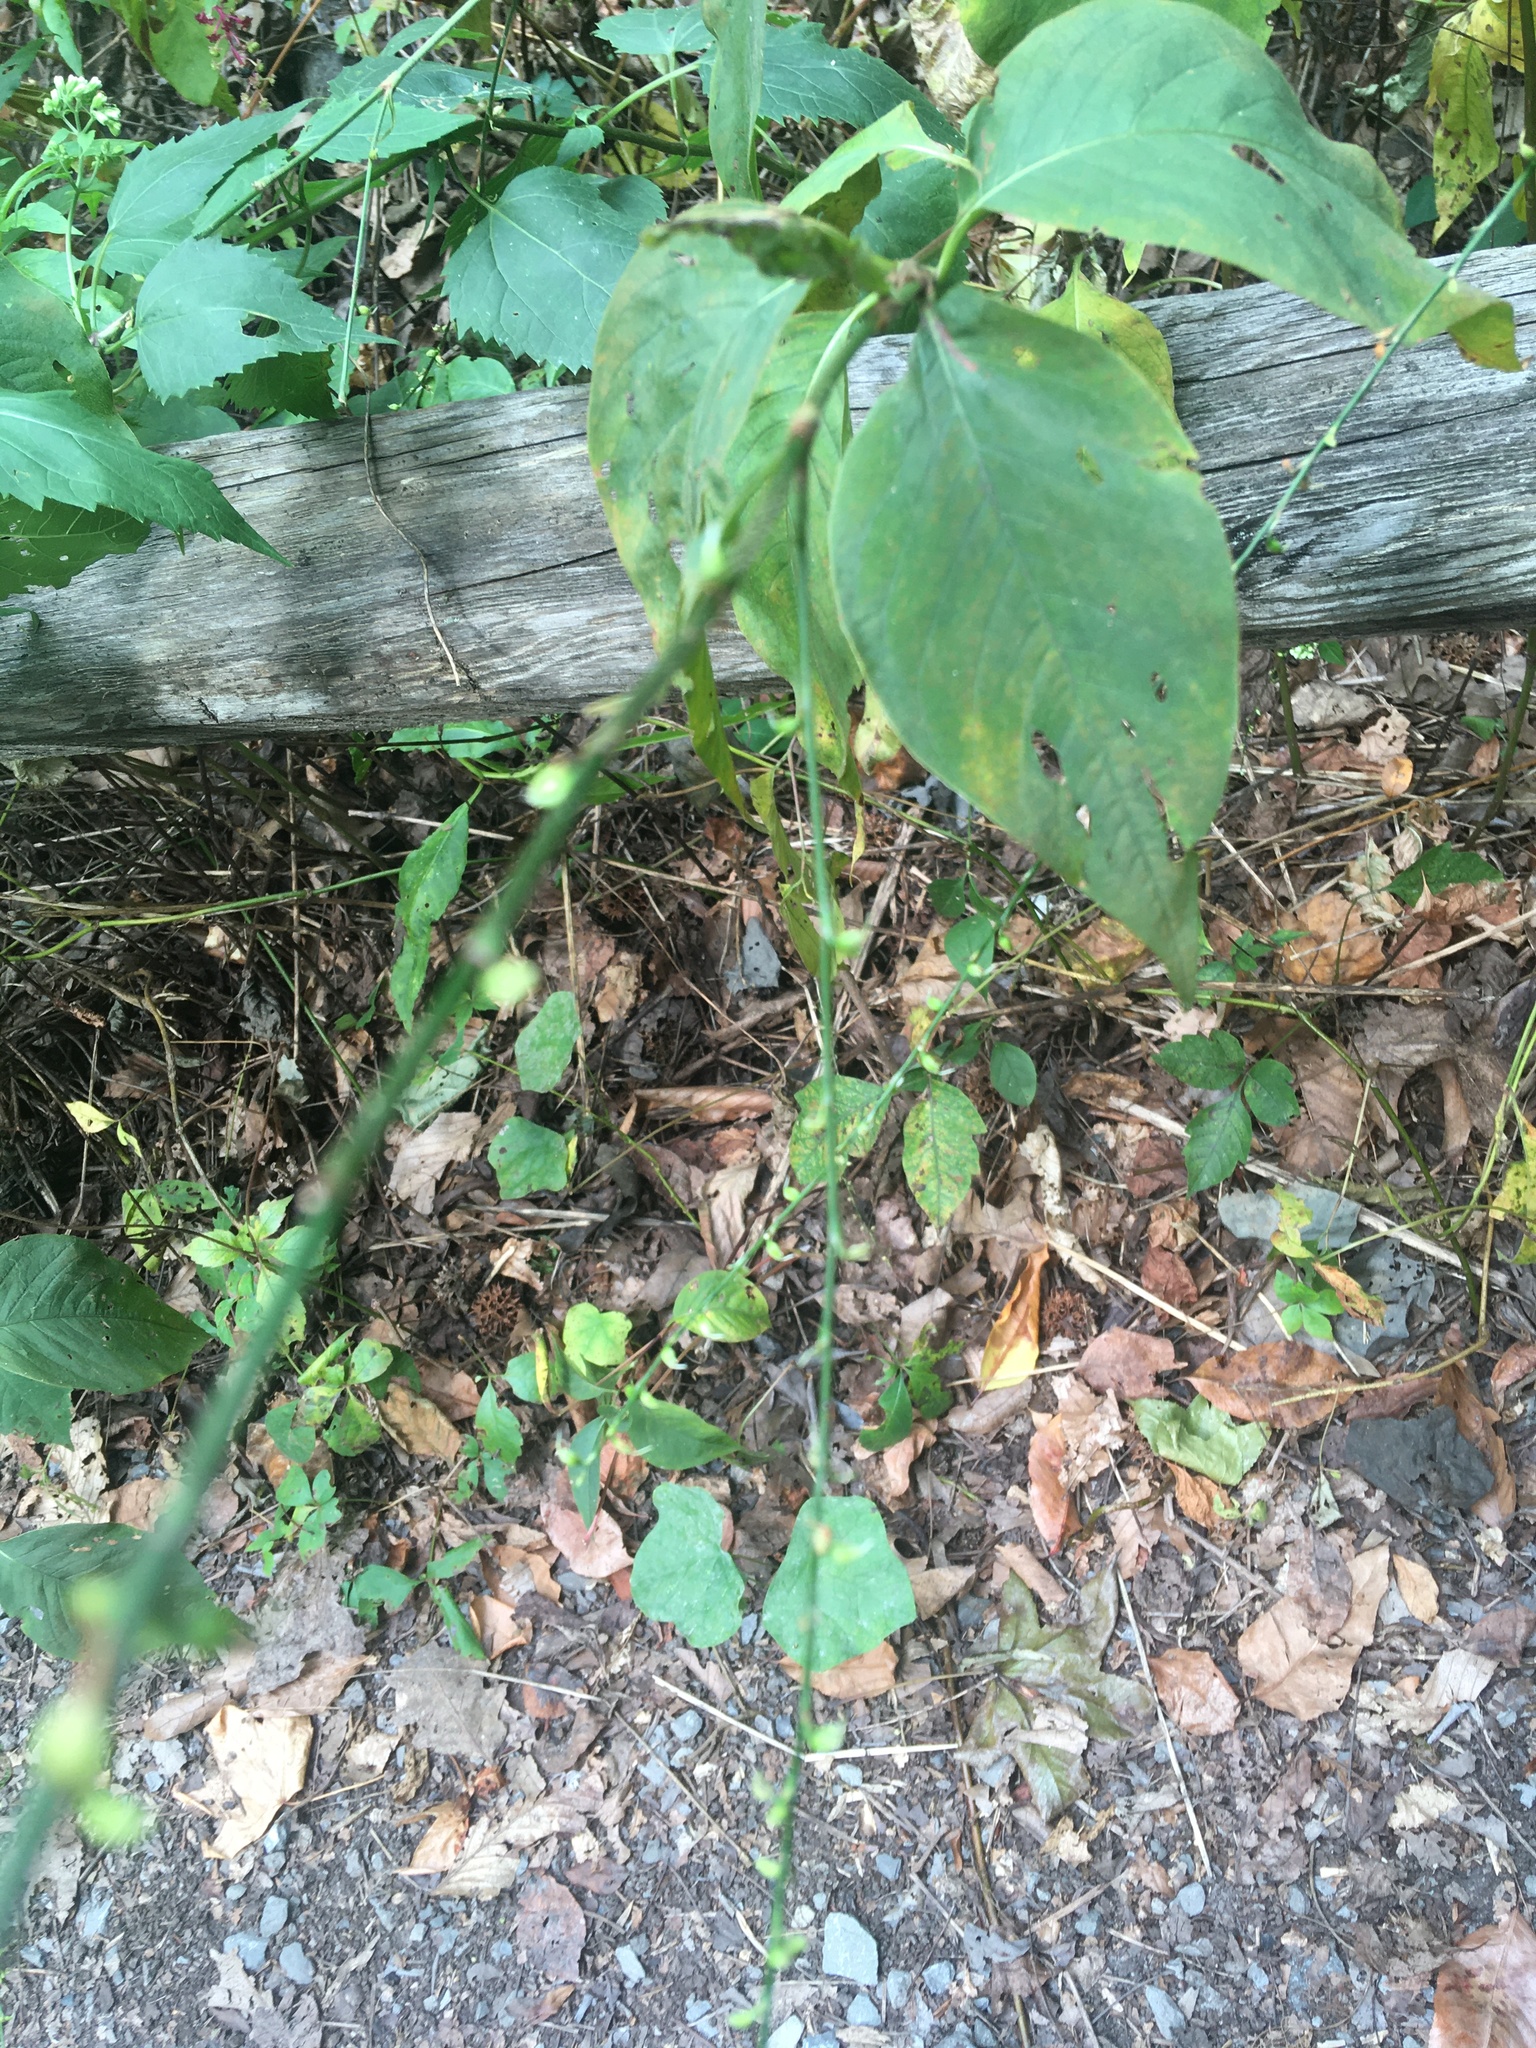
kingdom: Plantae
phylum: Tracheophyta
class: Magnoliopsida
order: Caryophyllales
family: Polygonaceae
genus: Persicaria
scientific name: Persicaria virginiana
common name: Jumpseed
